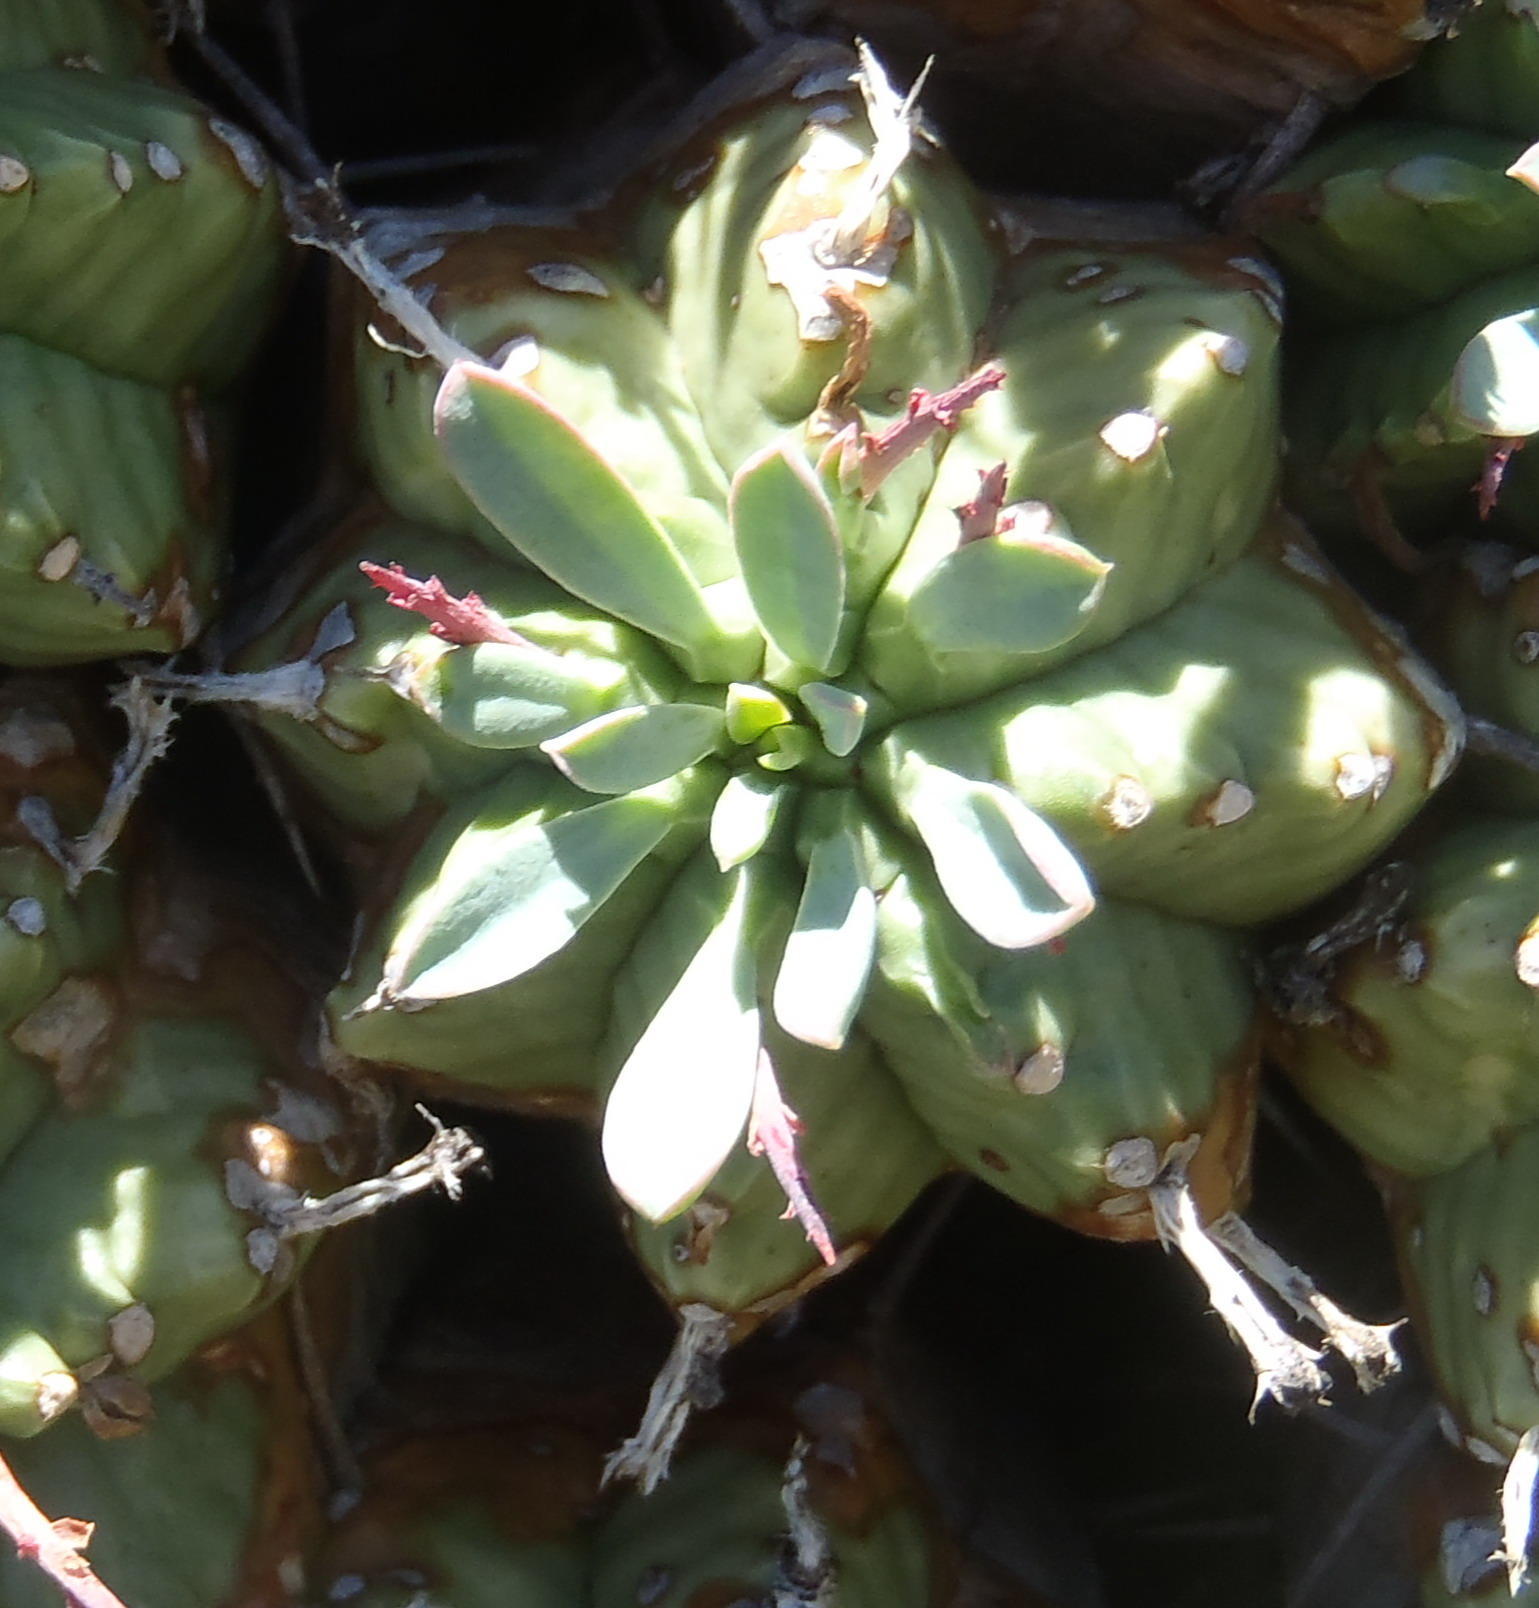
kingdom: Plantae
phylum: Tracheophyta
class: Magnoliopsida
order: Malpighiales
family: Euphorbiaceae
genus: Euphorbia
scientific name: Euphorbia pulvinata
